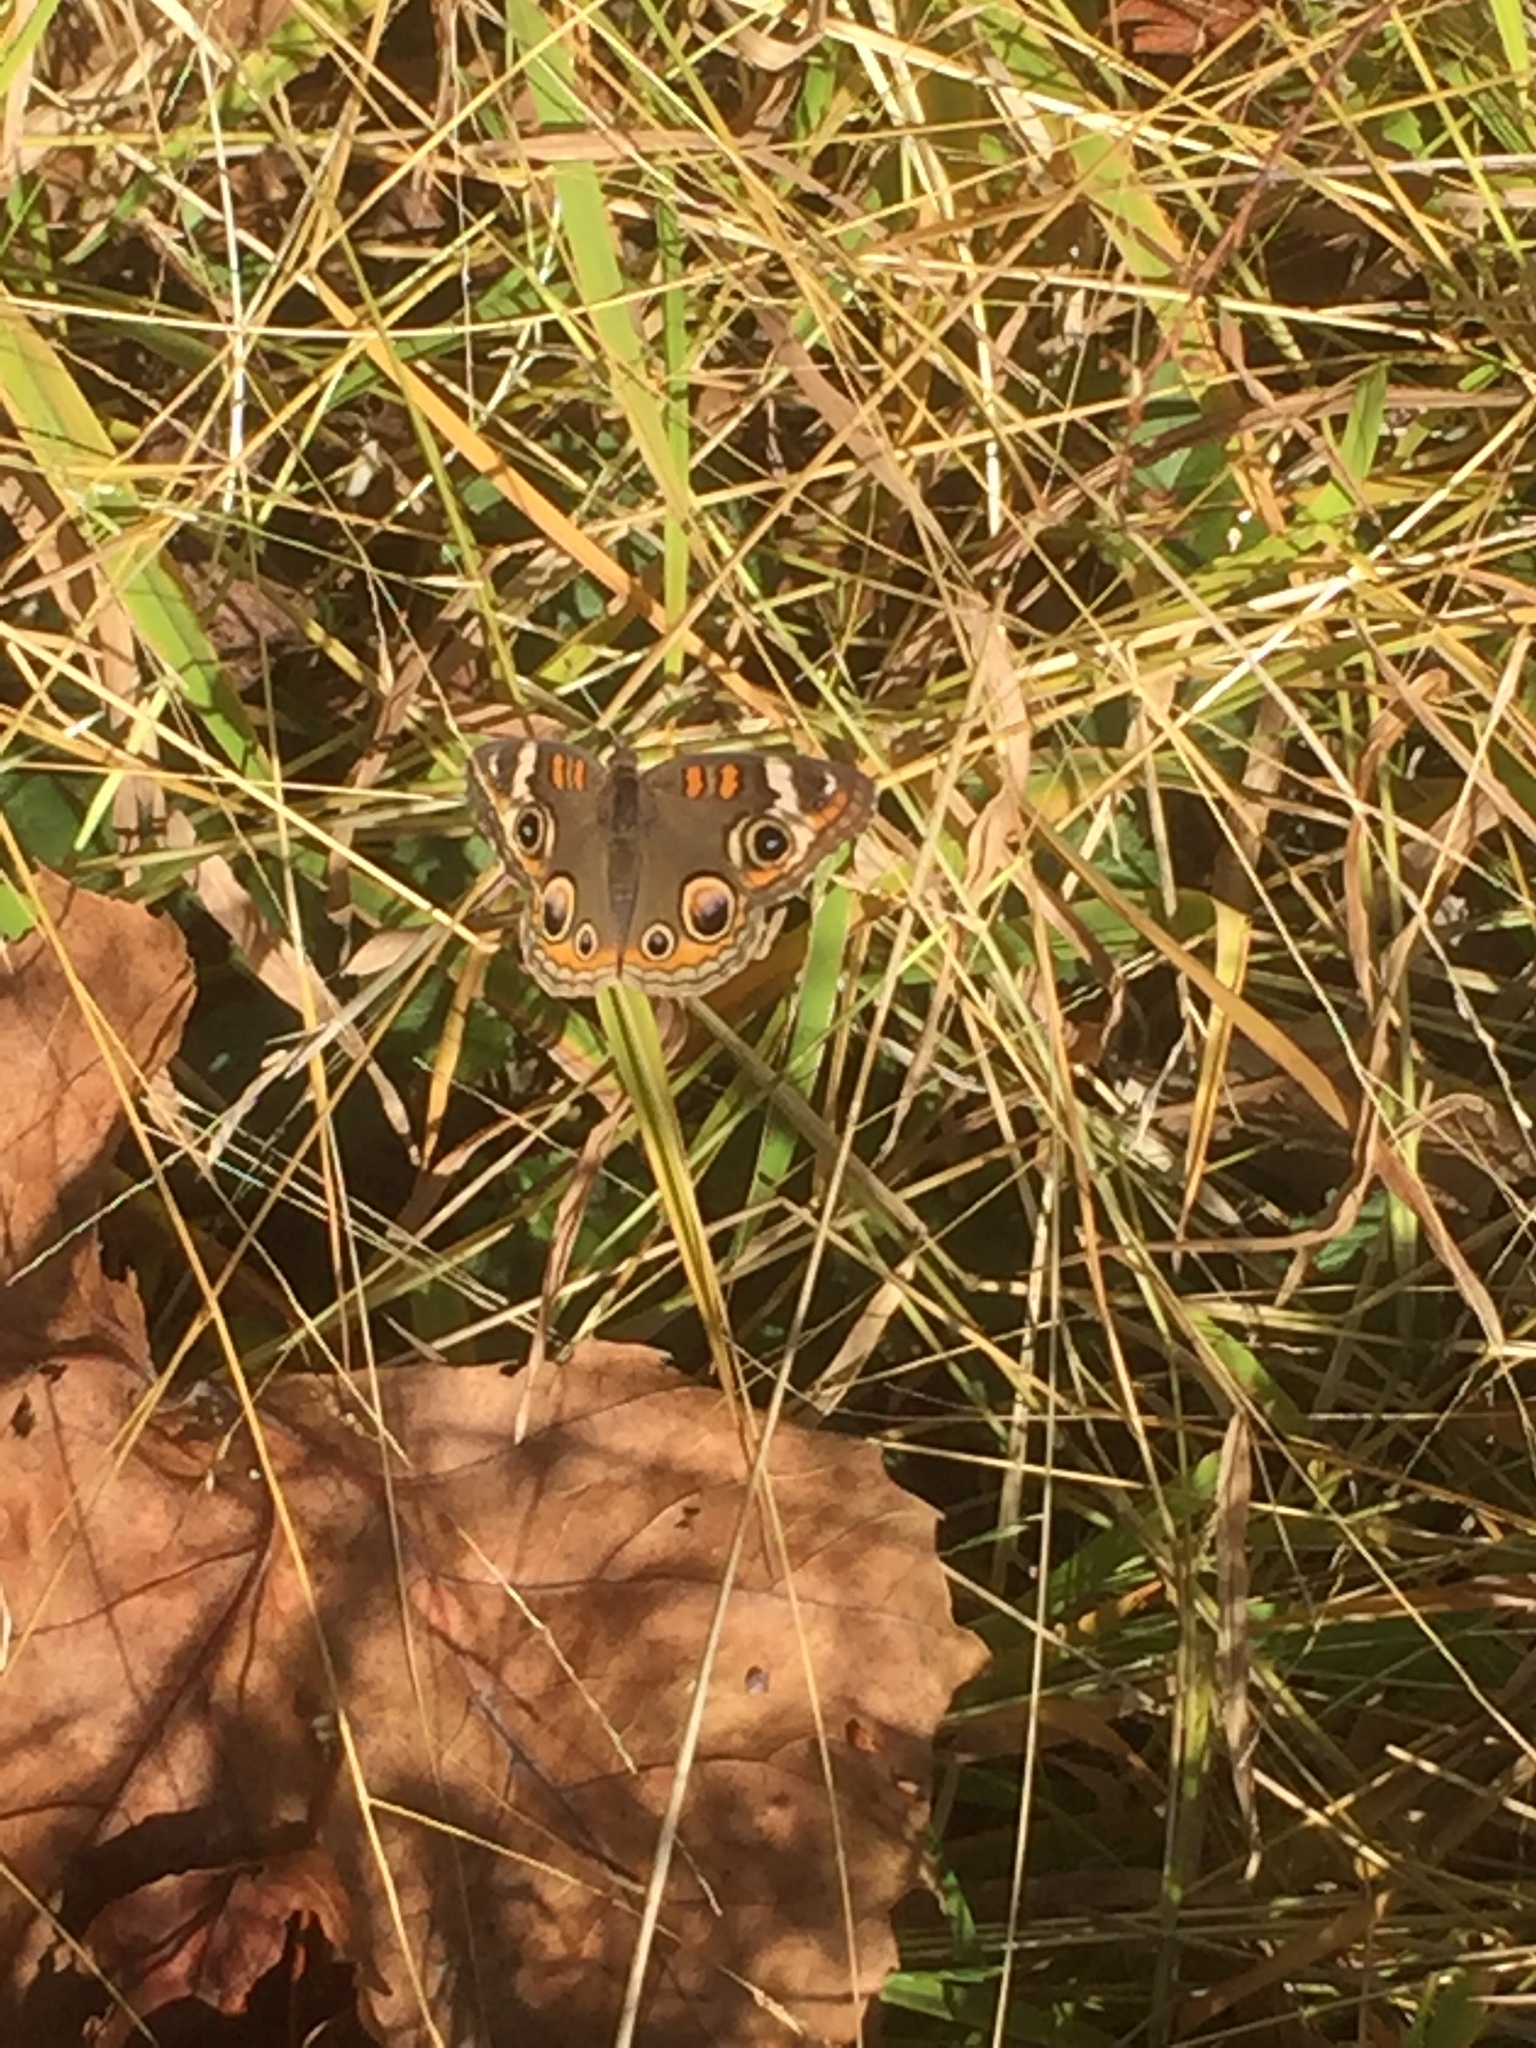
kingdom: Animalia
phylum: Arthropoda
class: Insecta
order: Lepidoptera
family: Nymphalidae
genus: Junonia
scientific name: Junonia coenia
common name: Common buckeye
